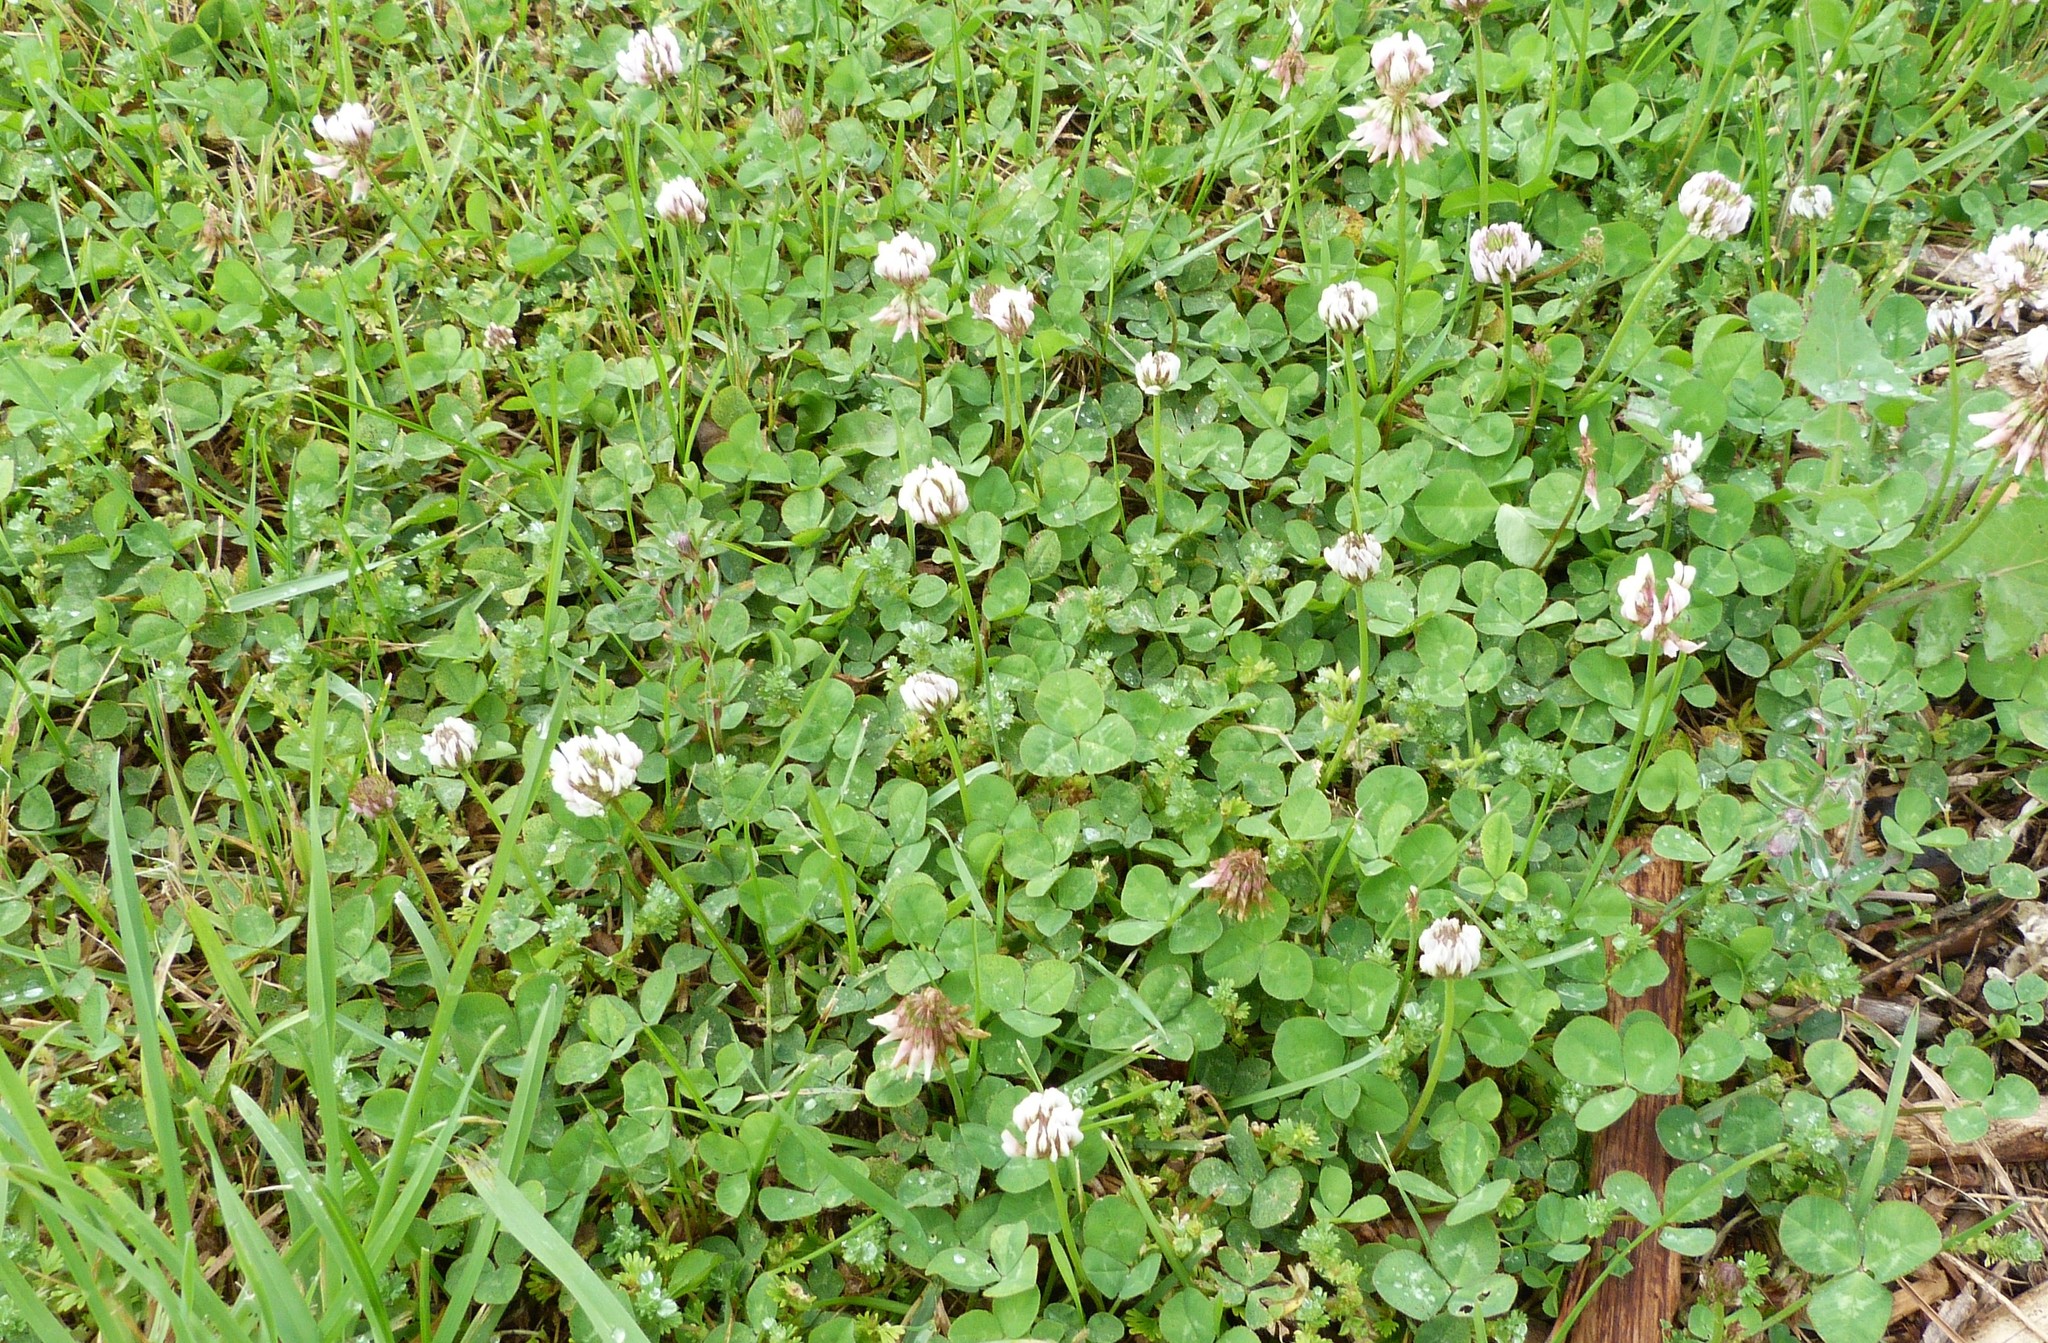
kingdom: Plantae
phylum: Tracheophyta
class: Magnoliopsida
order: Fabales
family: Fabaceae
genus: Trifolium
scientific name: Trifolium repens
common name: White clover
